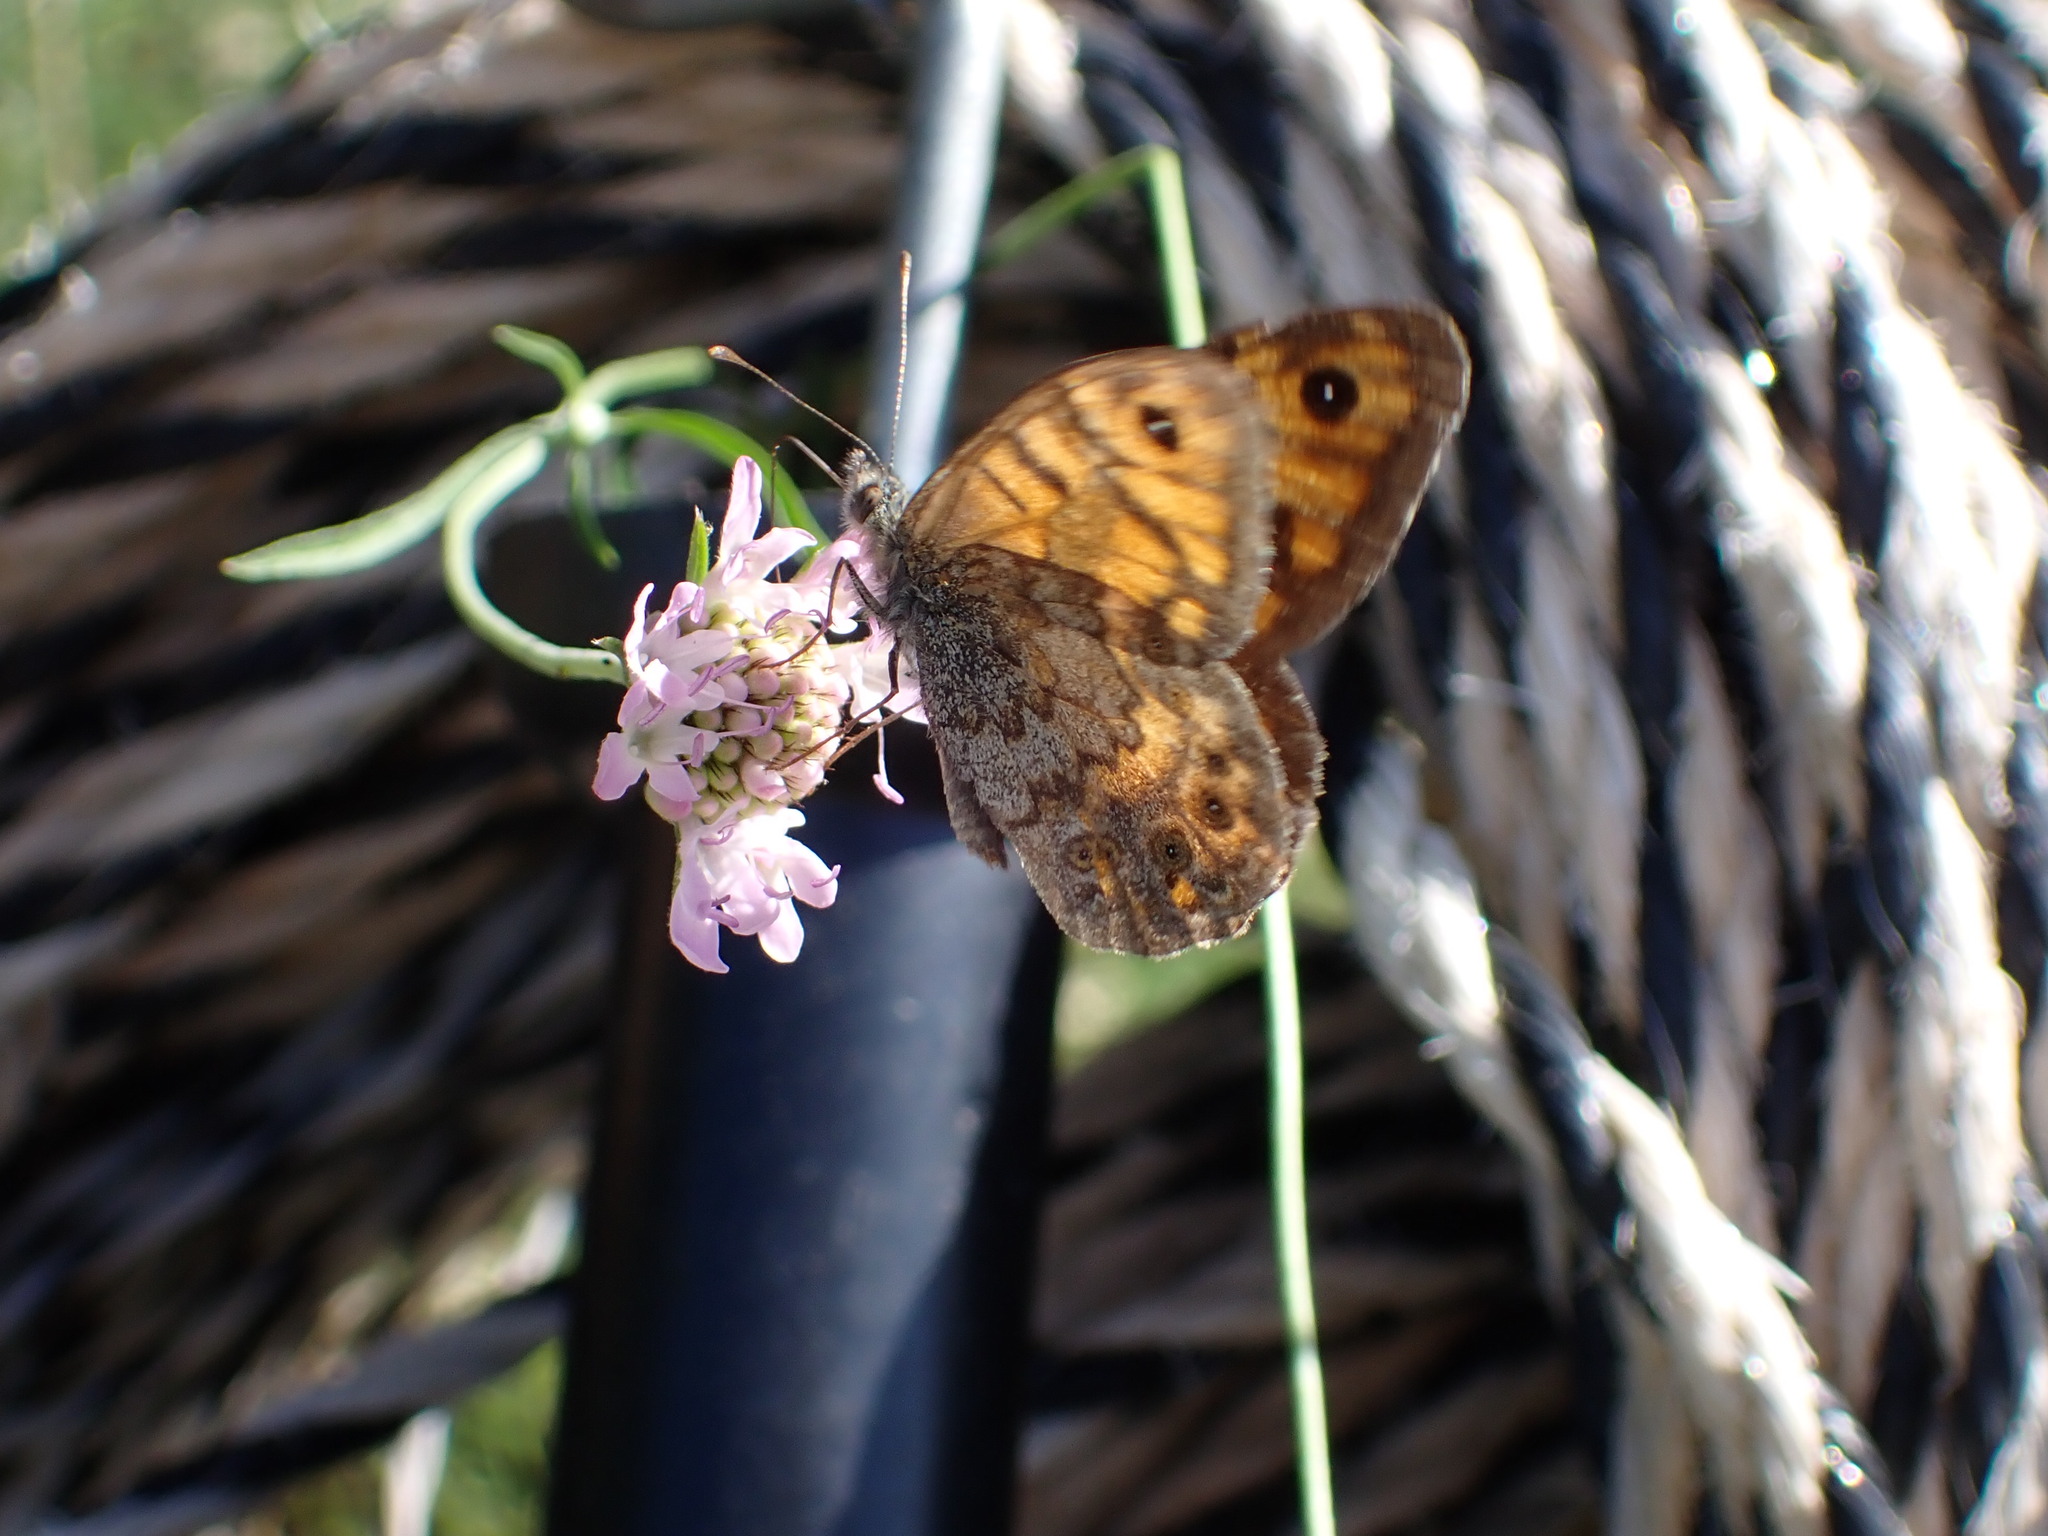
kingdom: Animalia
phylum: Arthropoda
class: Insecta
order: Lepidoptera
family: Nymphalidae
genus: Pararge
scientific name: Pararge Lasiommata megera
